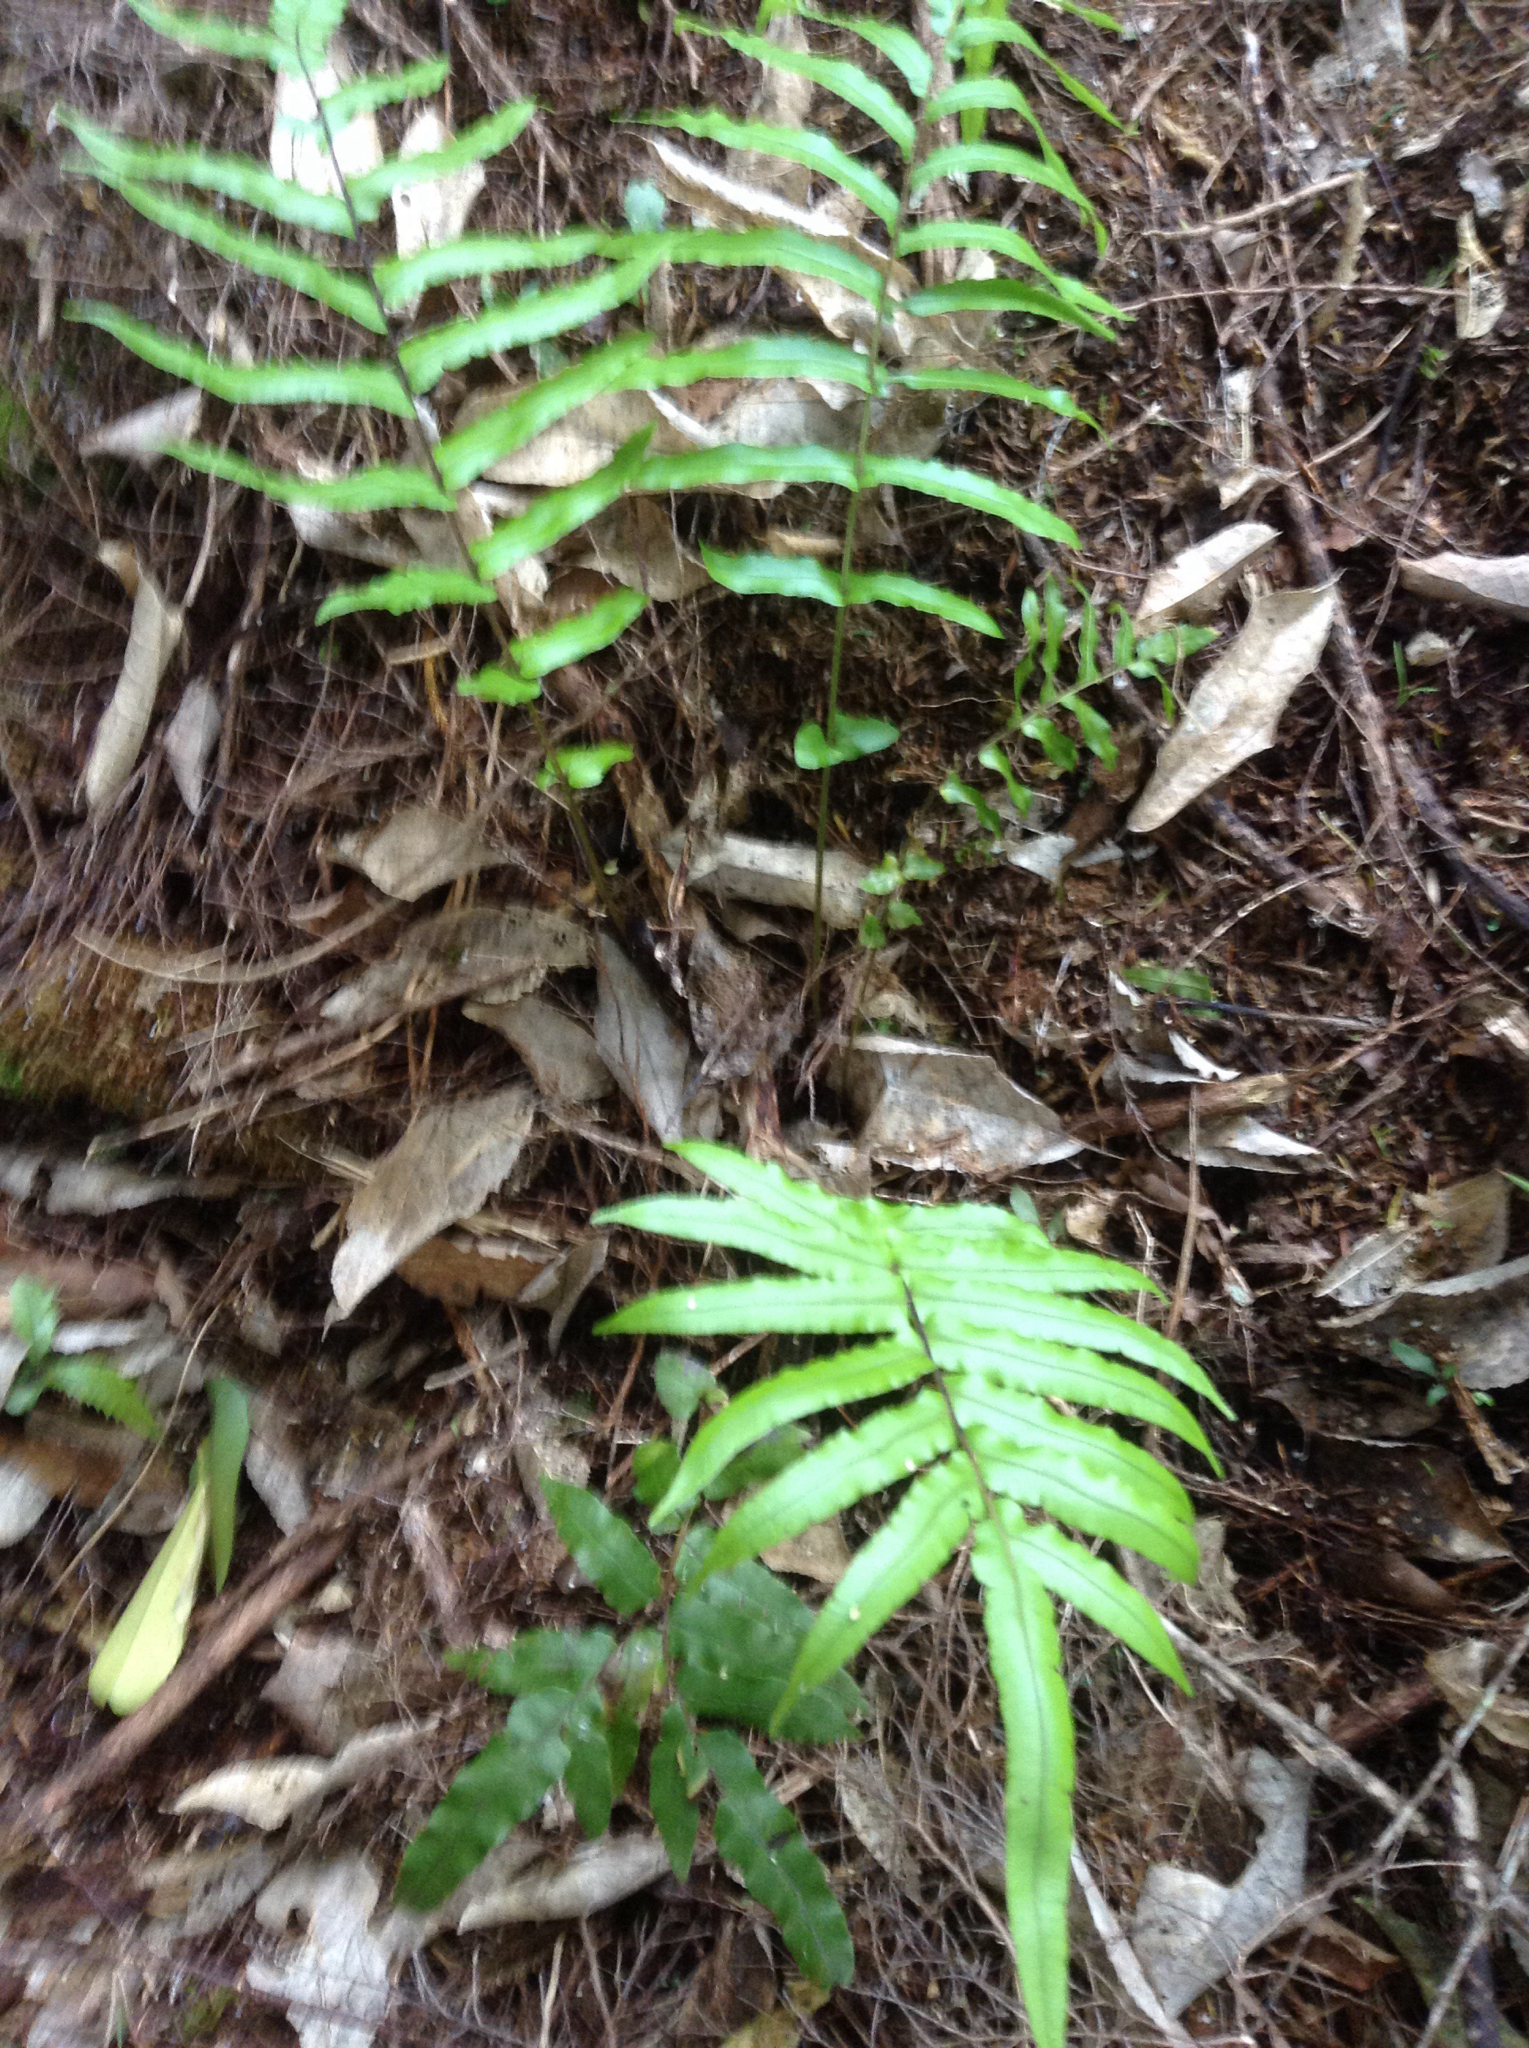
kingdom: Plantae
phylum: Tracheophyta
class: Polypodiopsida
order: Polypodiales
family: Blechnaceae
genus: Parablechnum
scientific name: Parablechnum novae-zelandiae
